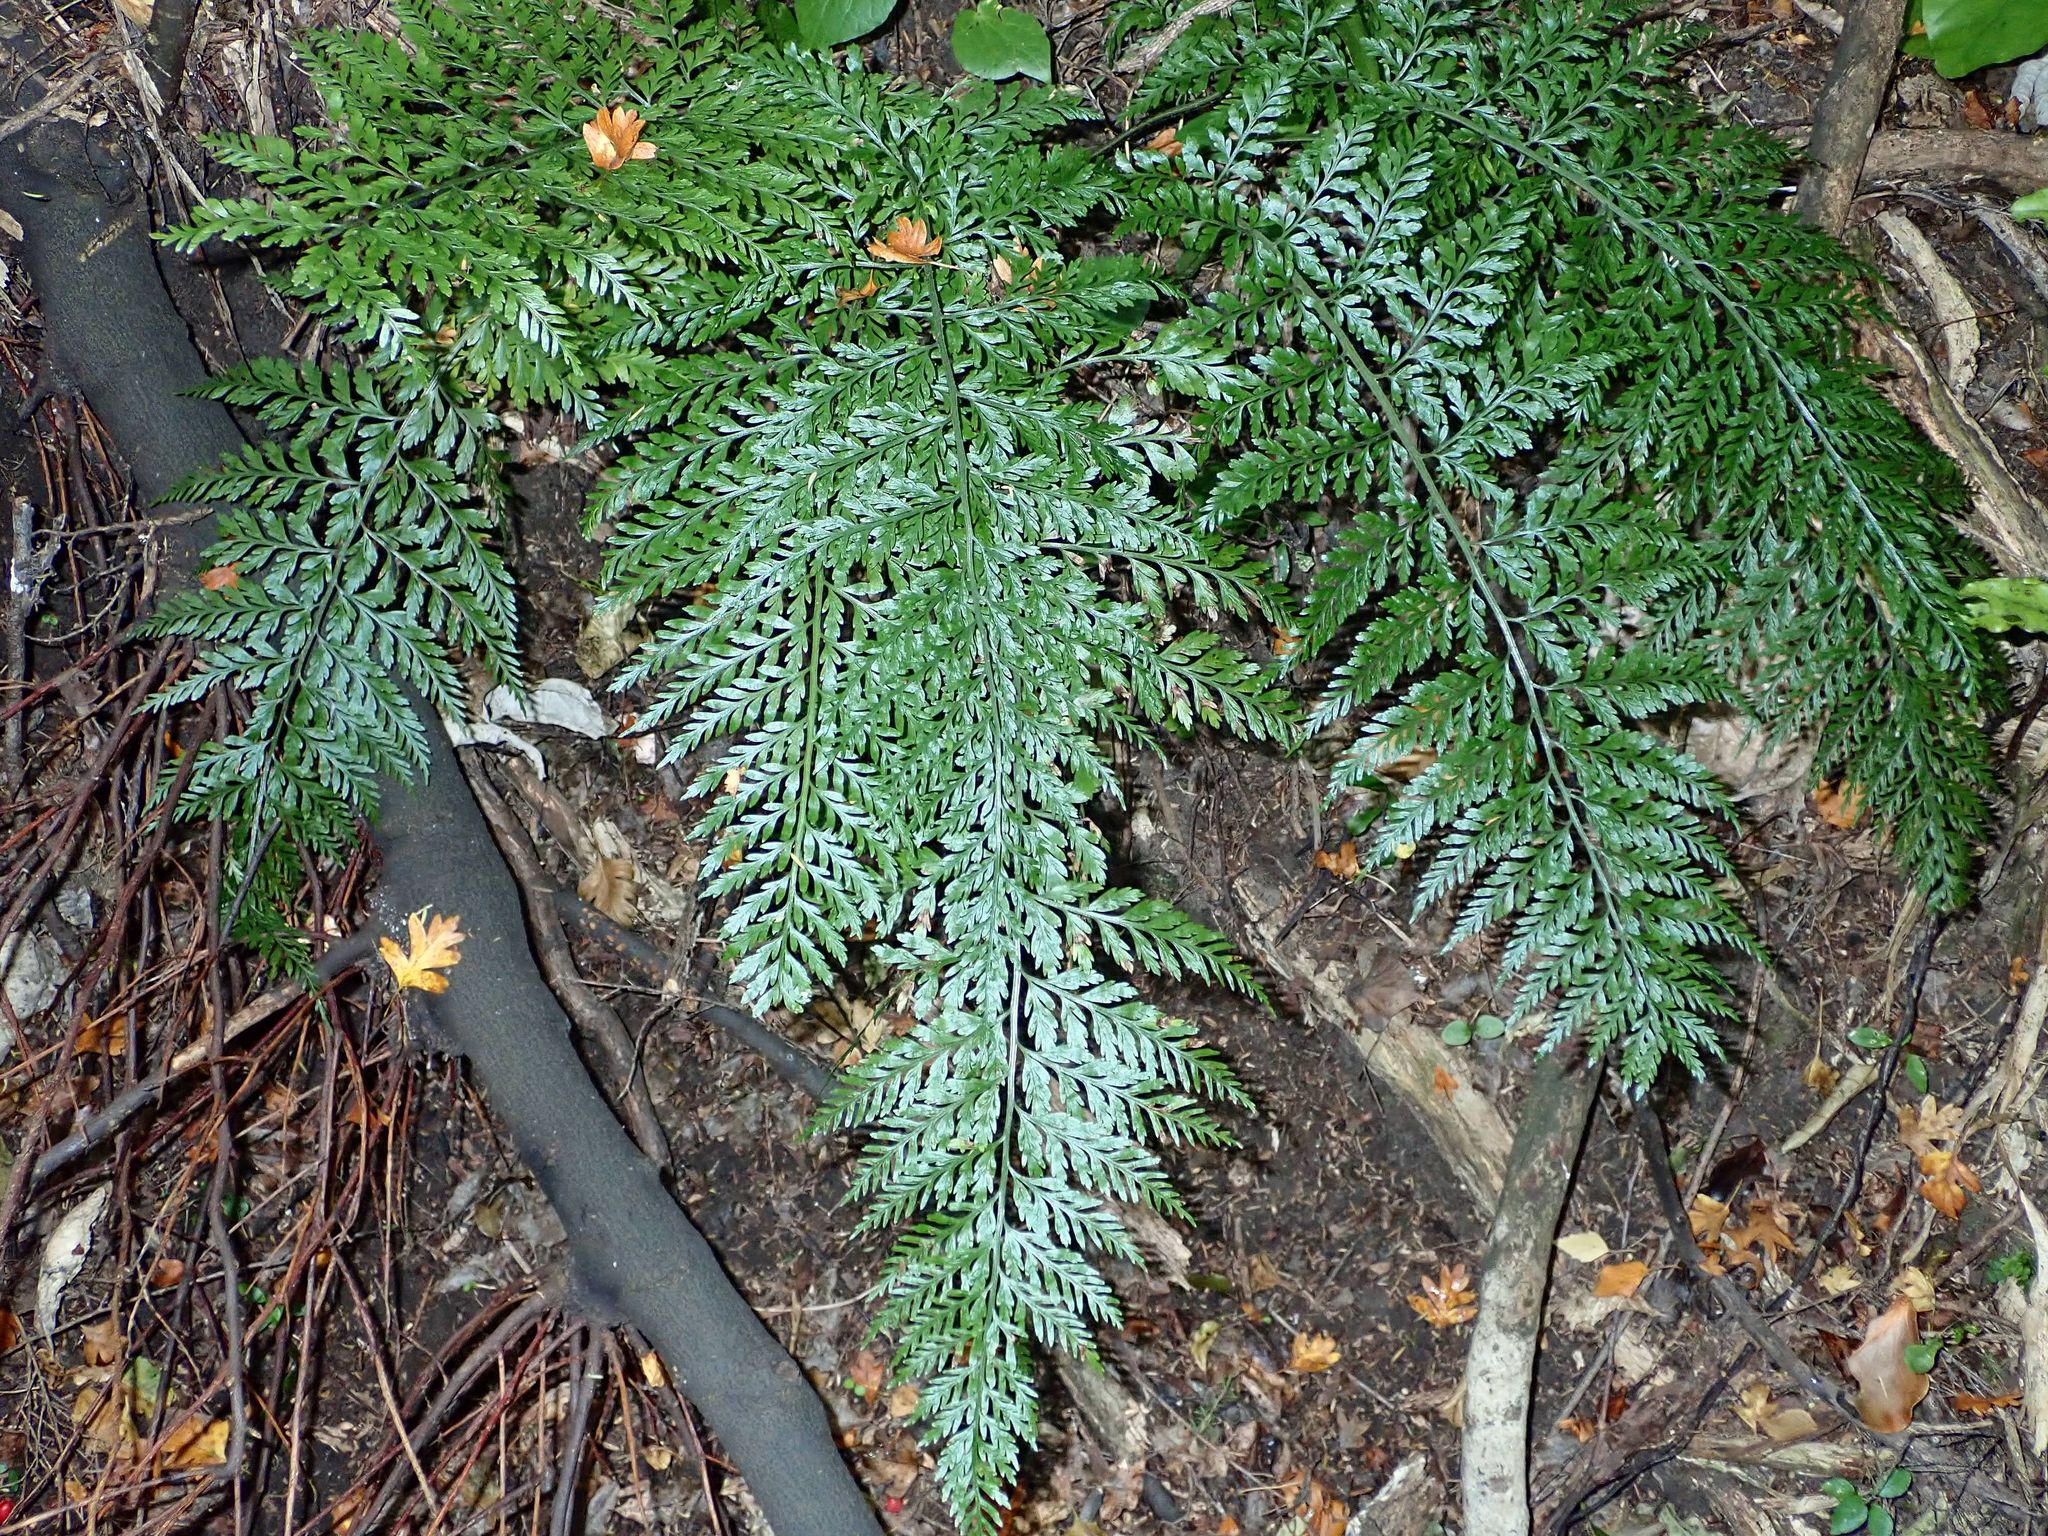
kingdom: Plantae
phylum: Tracheophyta
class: Polypodiopsida
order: Polypodiales
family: Aspleniaceae
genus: Asplenium
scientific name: Asplenium
